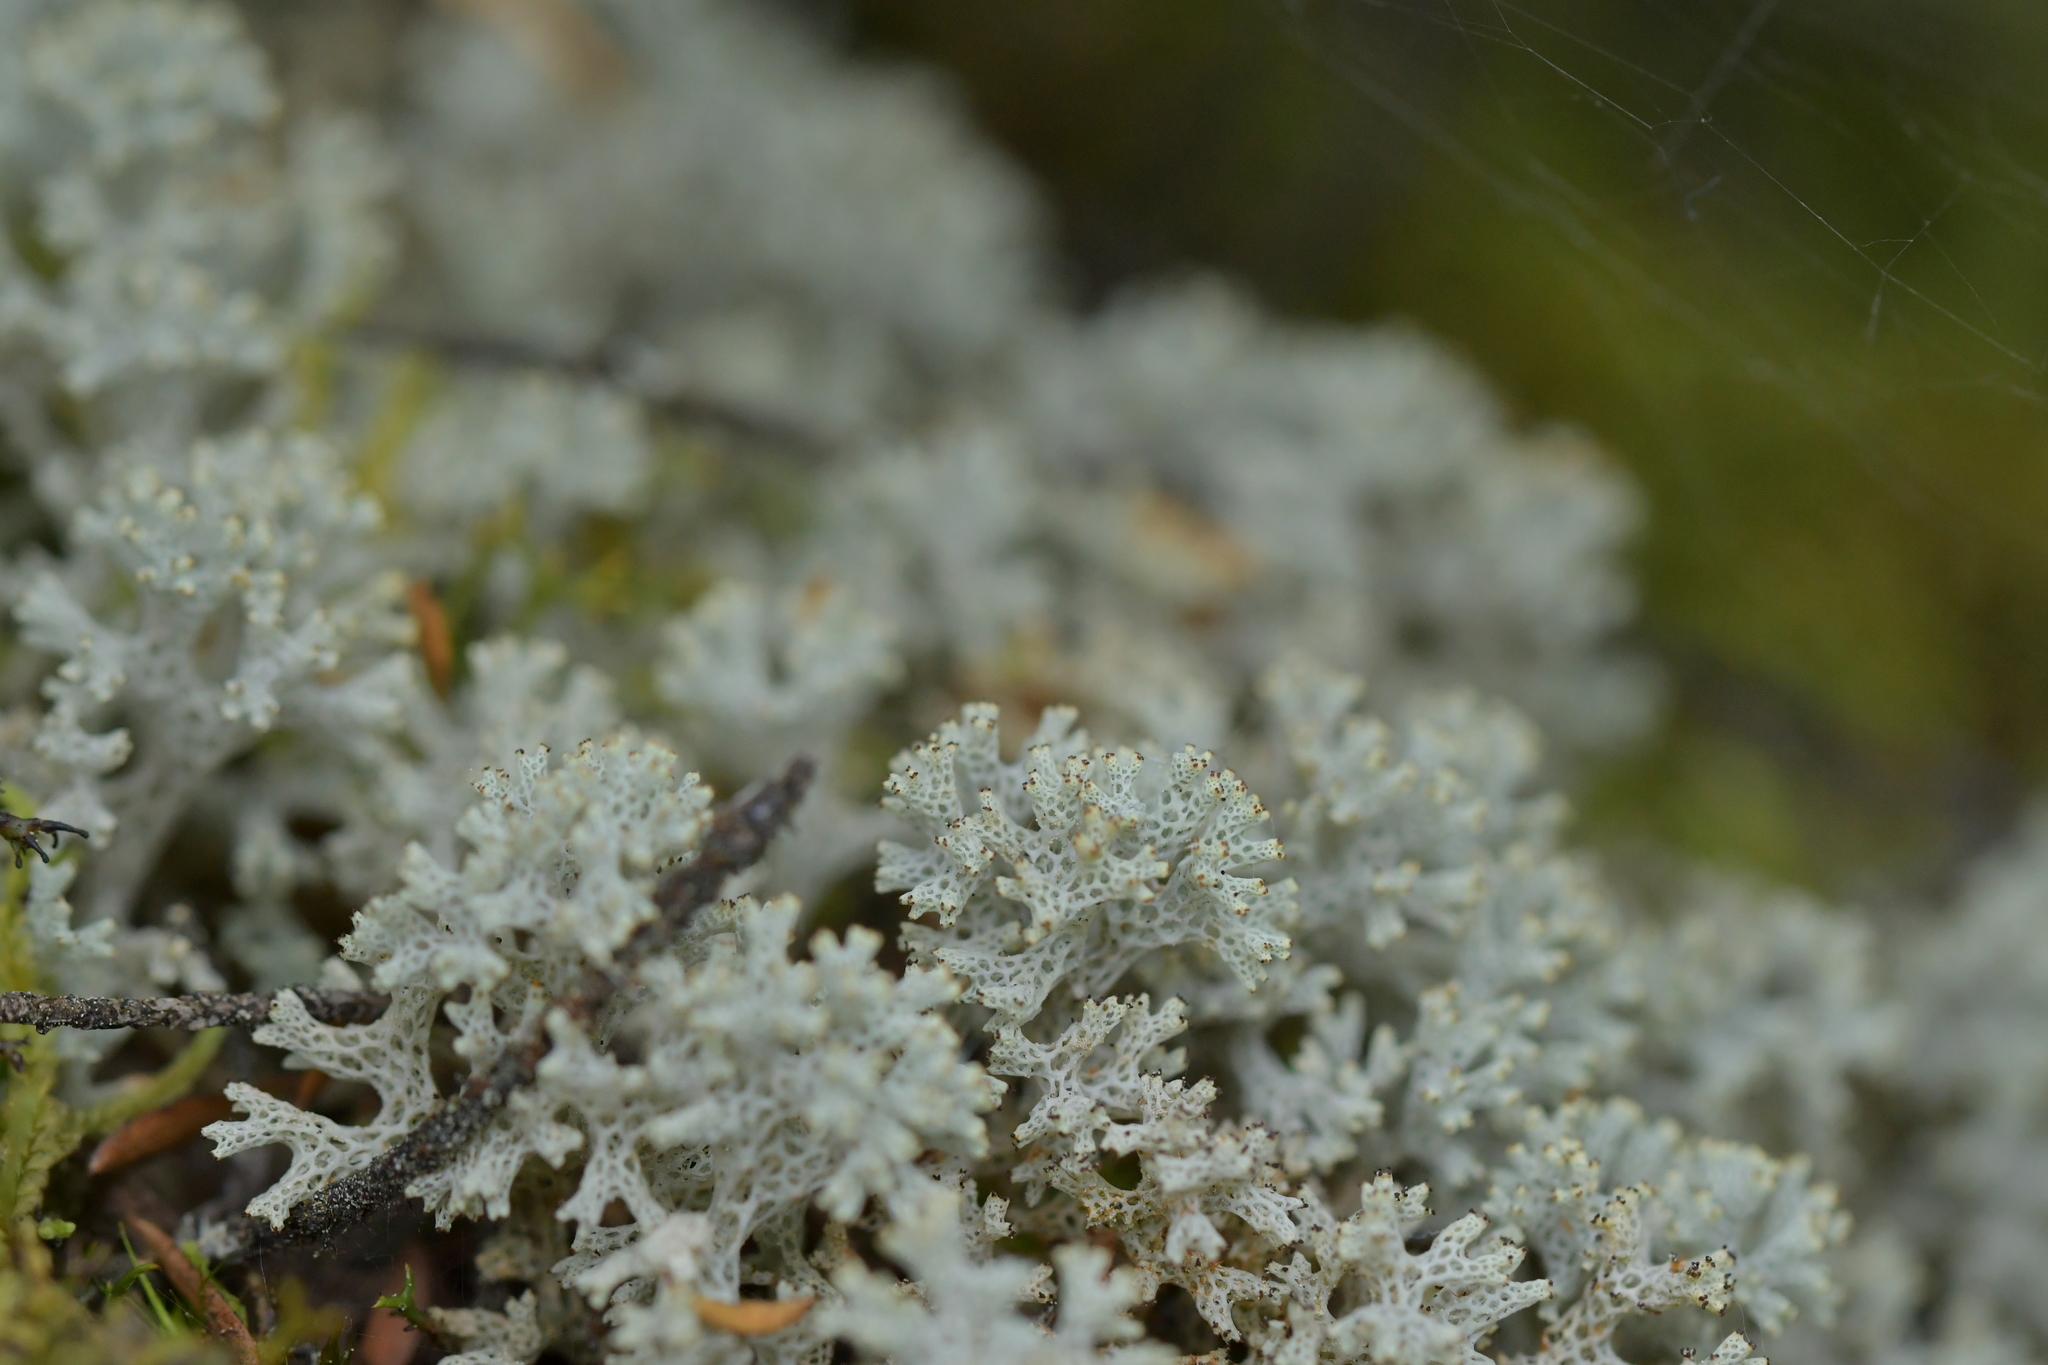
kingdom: Fungi
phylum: Ascomycota
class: Lecanoromycetes
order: Lecanorales
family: Cladoniaceae
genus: Pulchrocladia
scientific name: Pulchrocladia retipora
